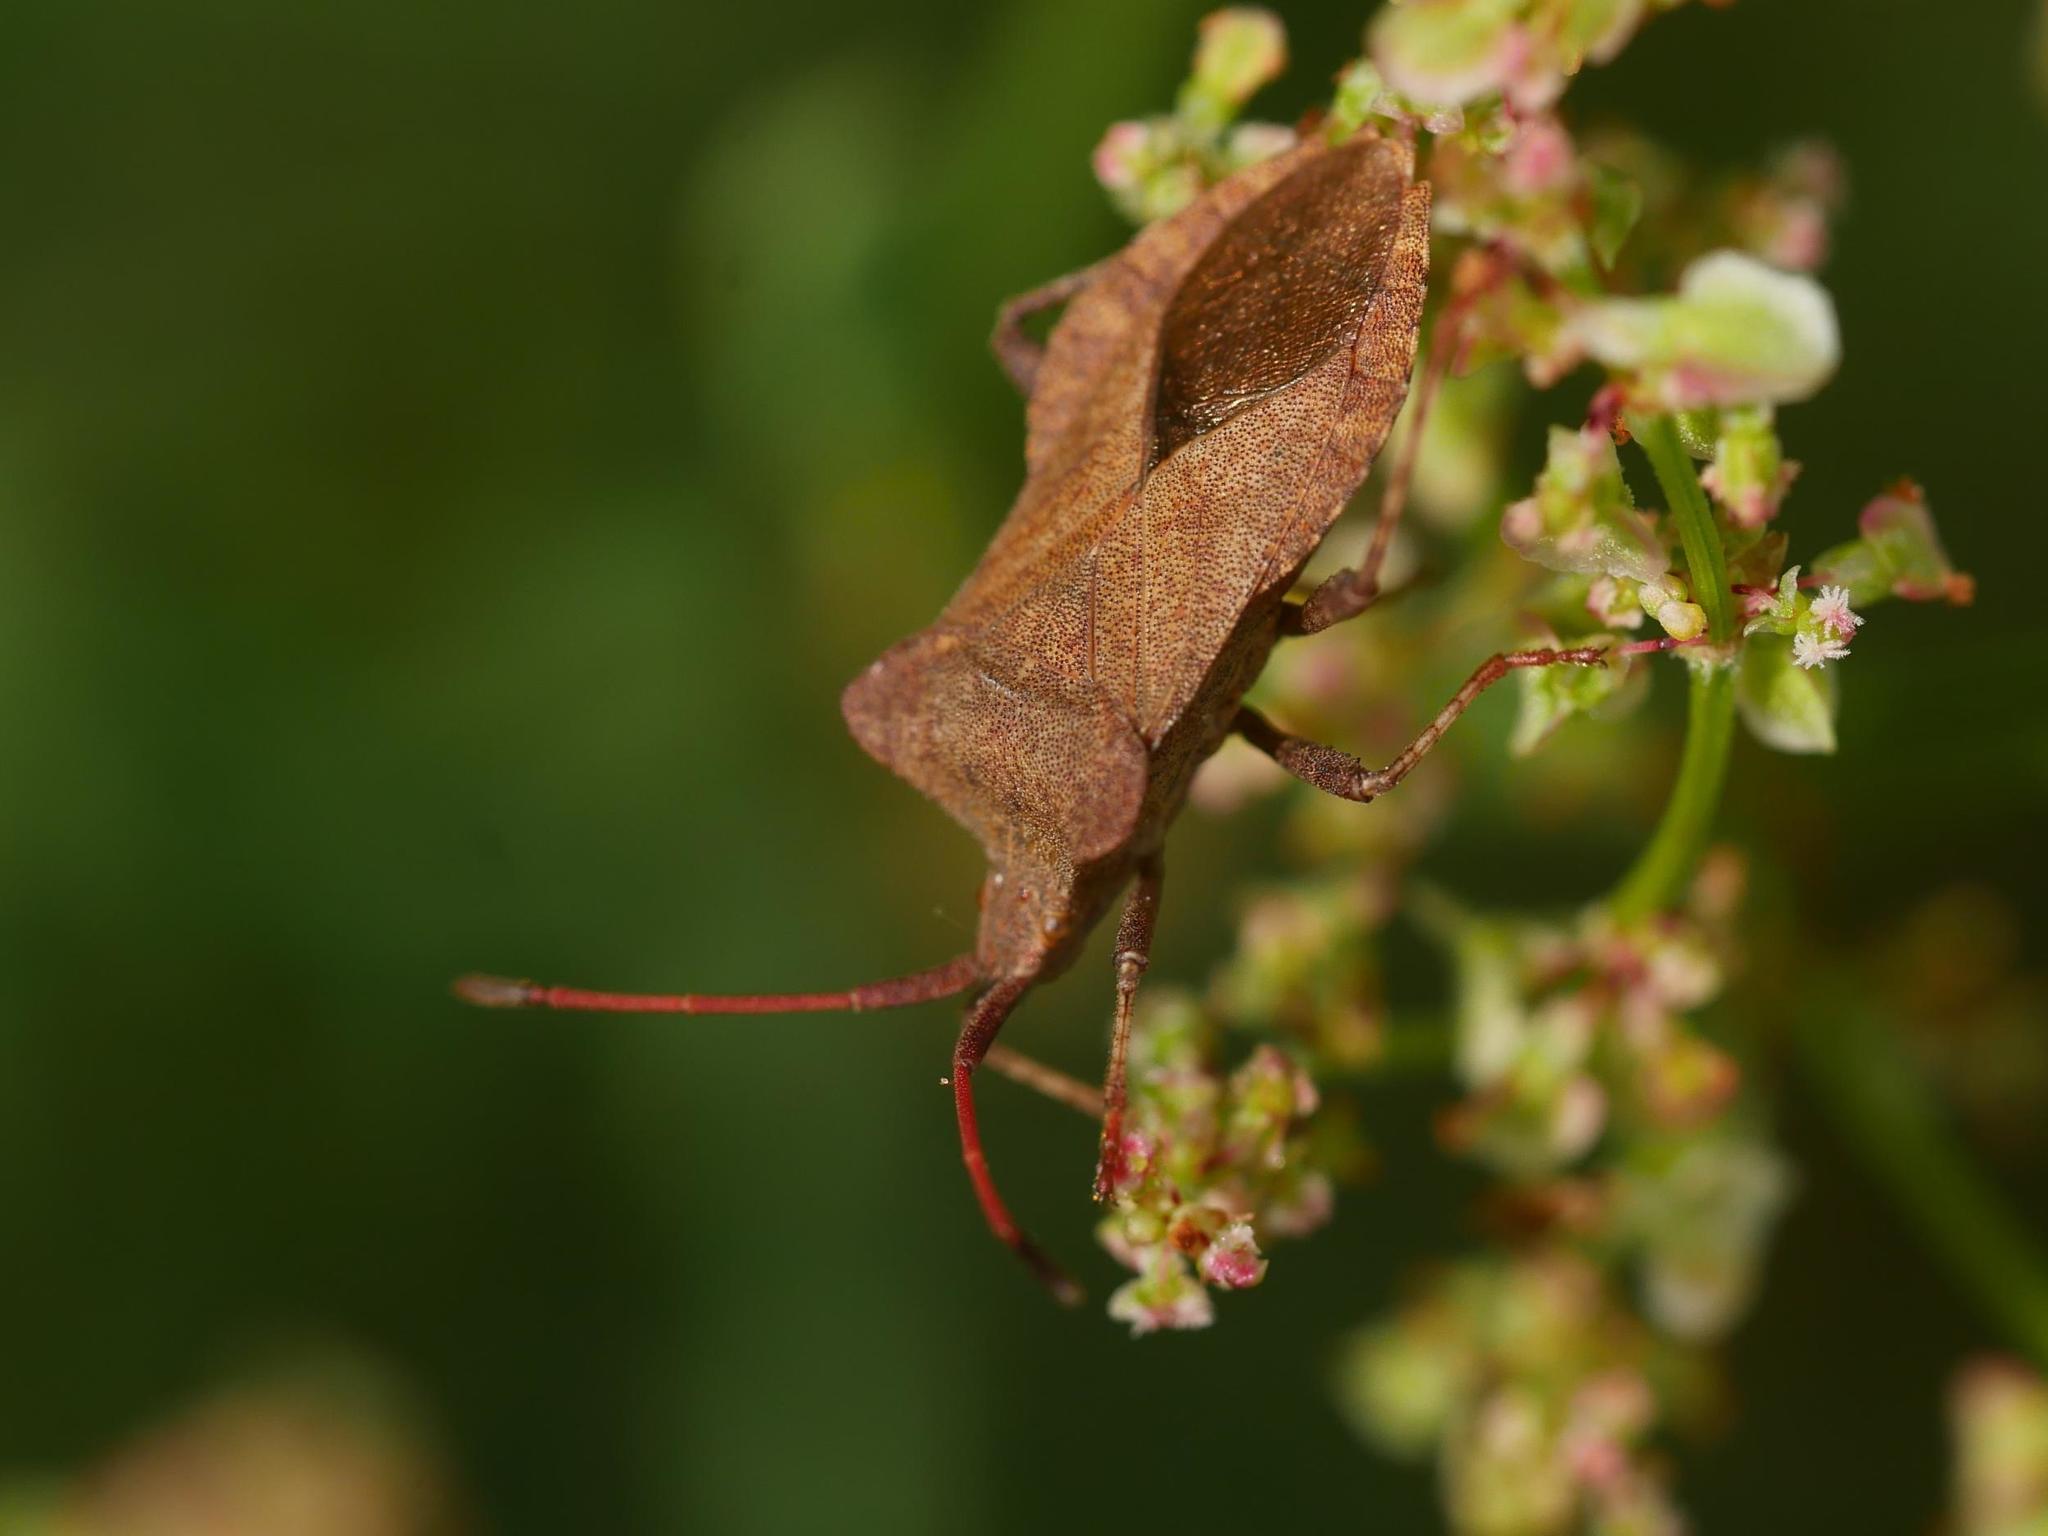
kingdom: Animalia
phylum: Arthropoda
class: Insecta
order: Hemiptera
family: Coreidae
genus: Coreus
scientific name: Coreus marginatus
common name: Dock bug
